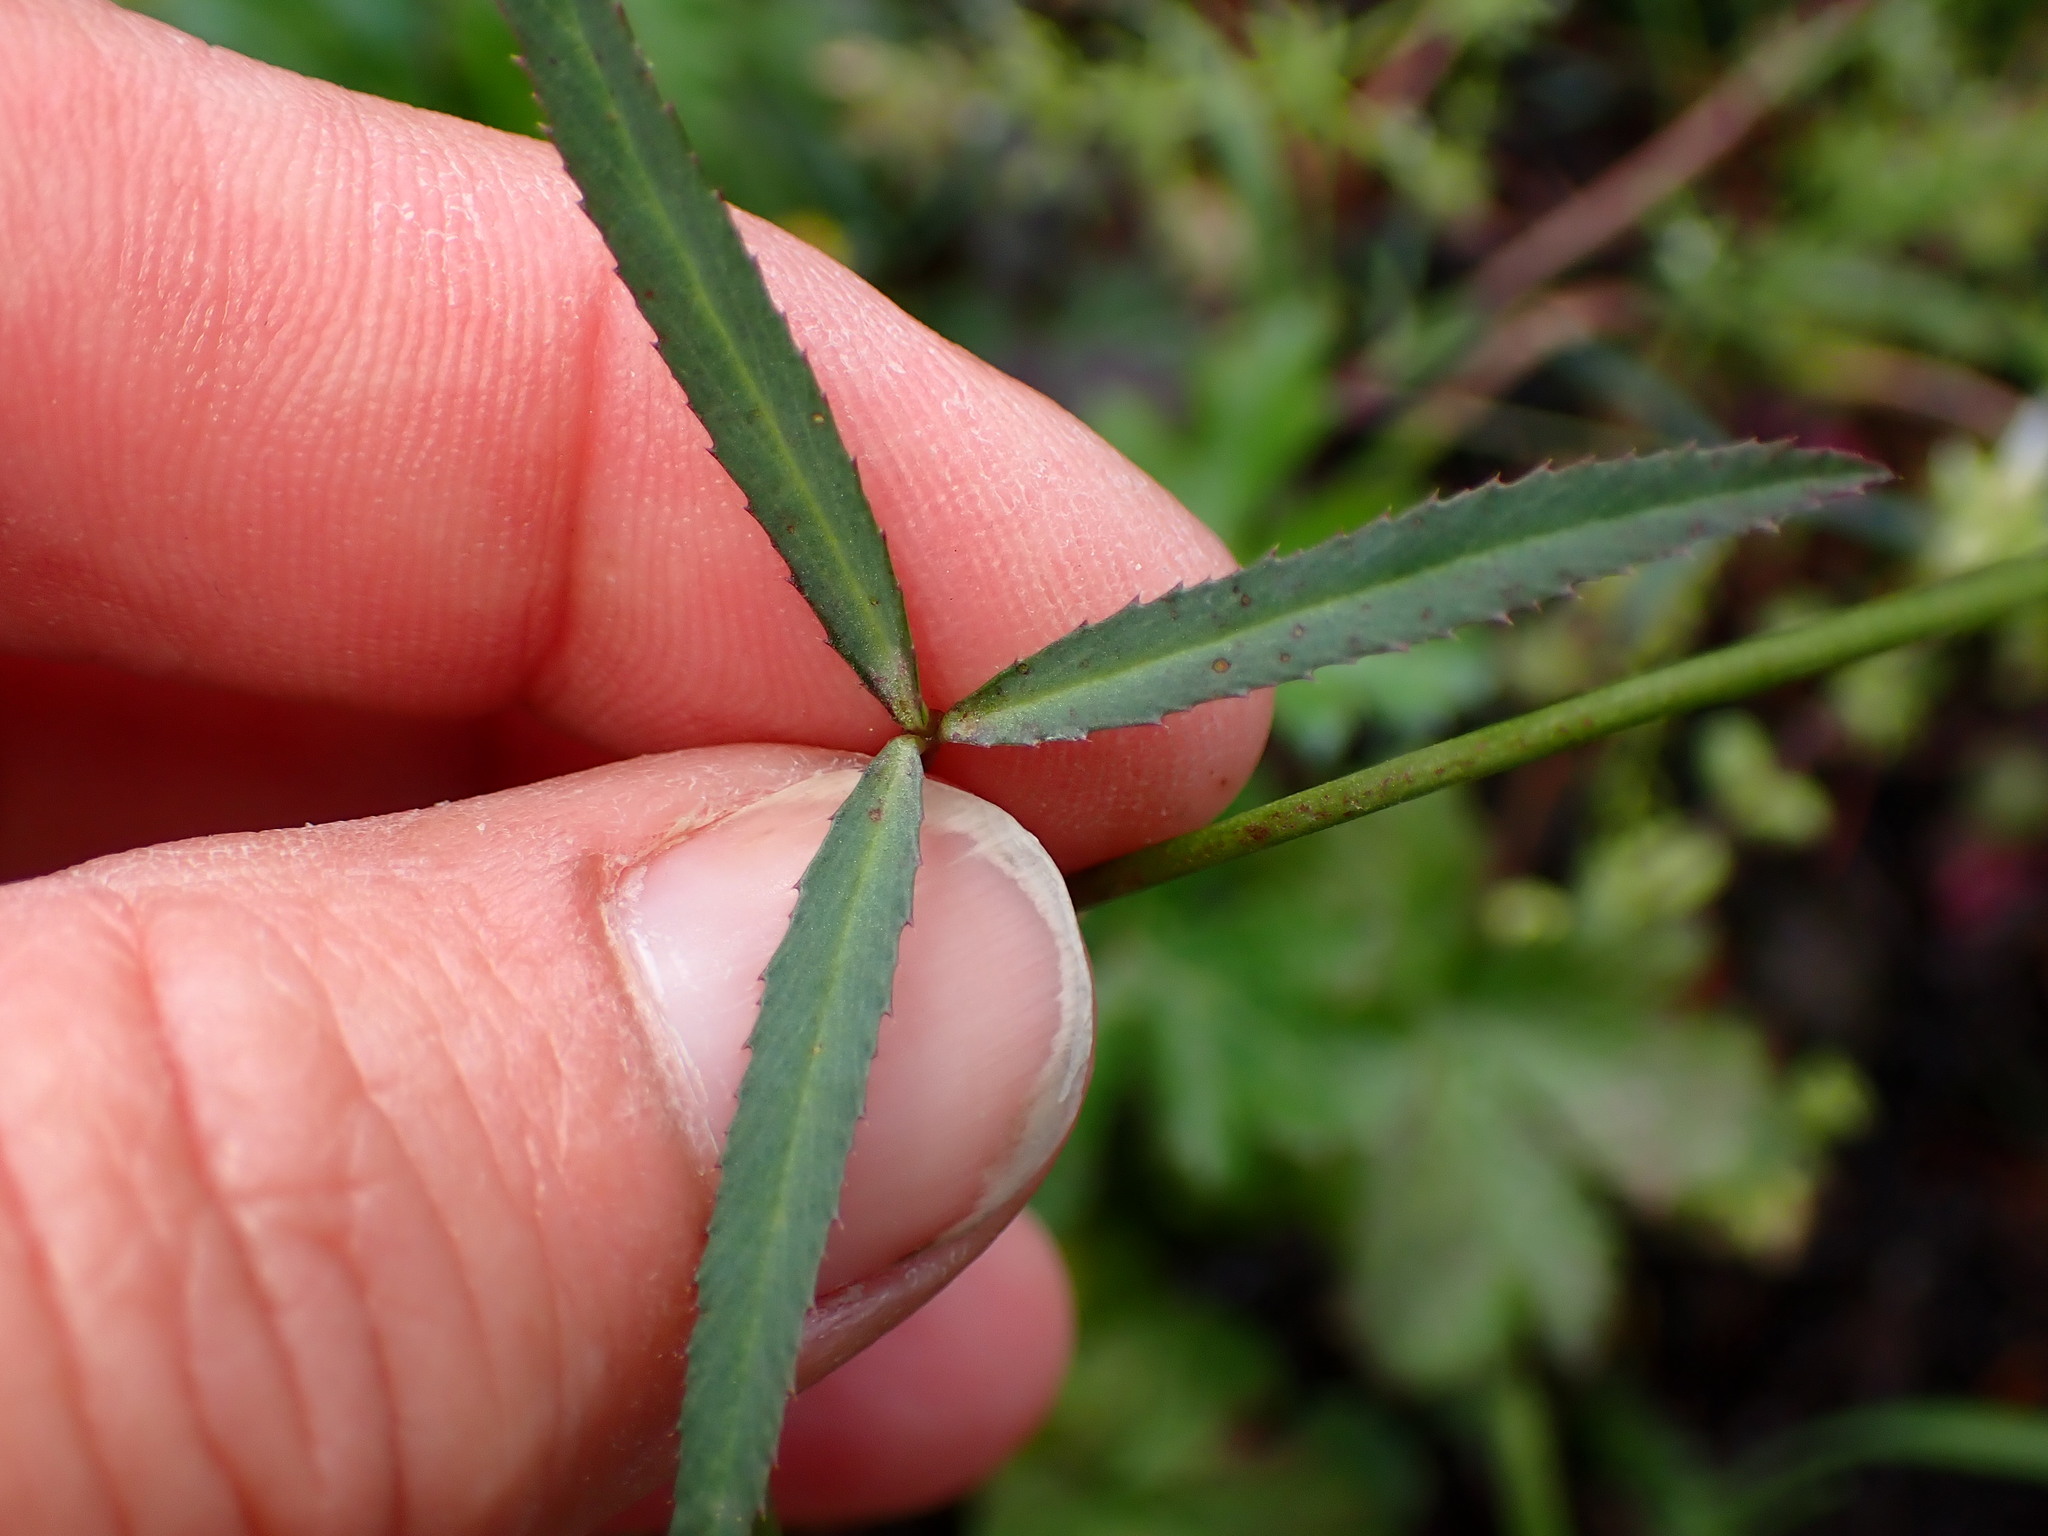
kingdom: Plantae
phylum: Tracheophyta
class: Magnoliopsida
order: Fabales
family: Fabaceae
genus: Trifolium
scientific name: Trifolium willdenovii
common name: Tomcat clover
